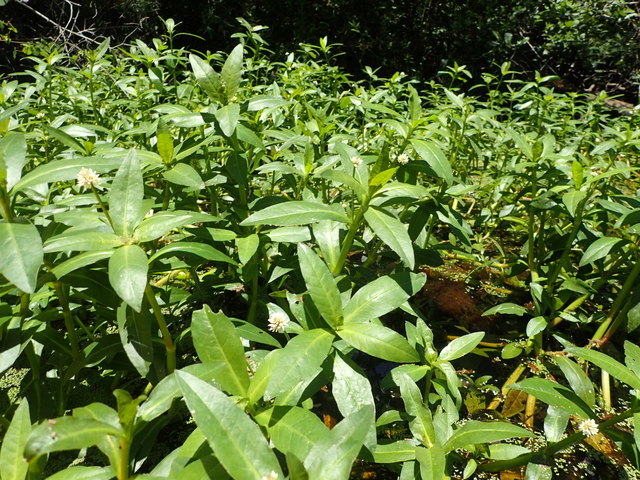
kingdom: Plantae
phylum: Tracheophyta
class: Magnoliopsida
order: Caryophyllales
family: Amaranthaceae
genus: Alternanthera
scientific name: Alternanthera philoxeroides
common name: Alligatorweed
